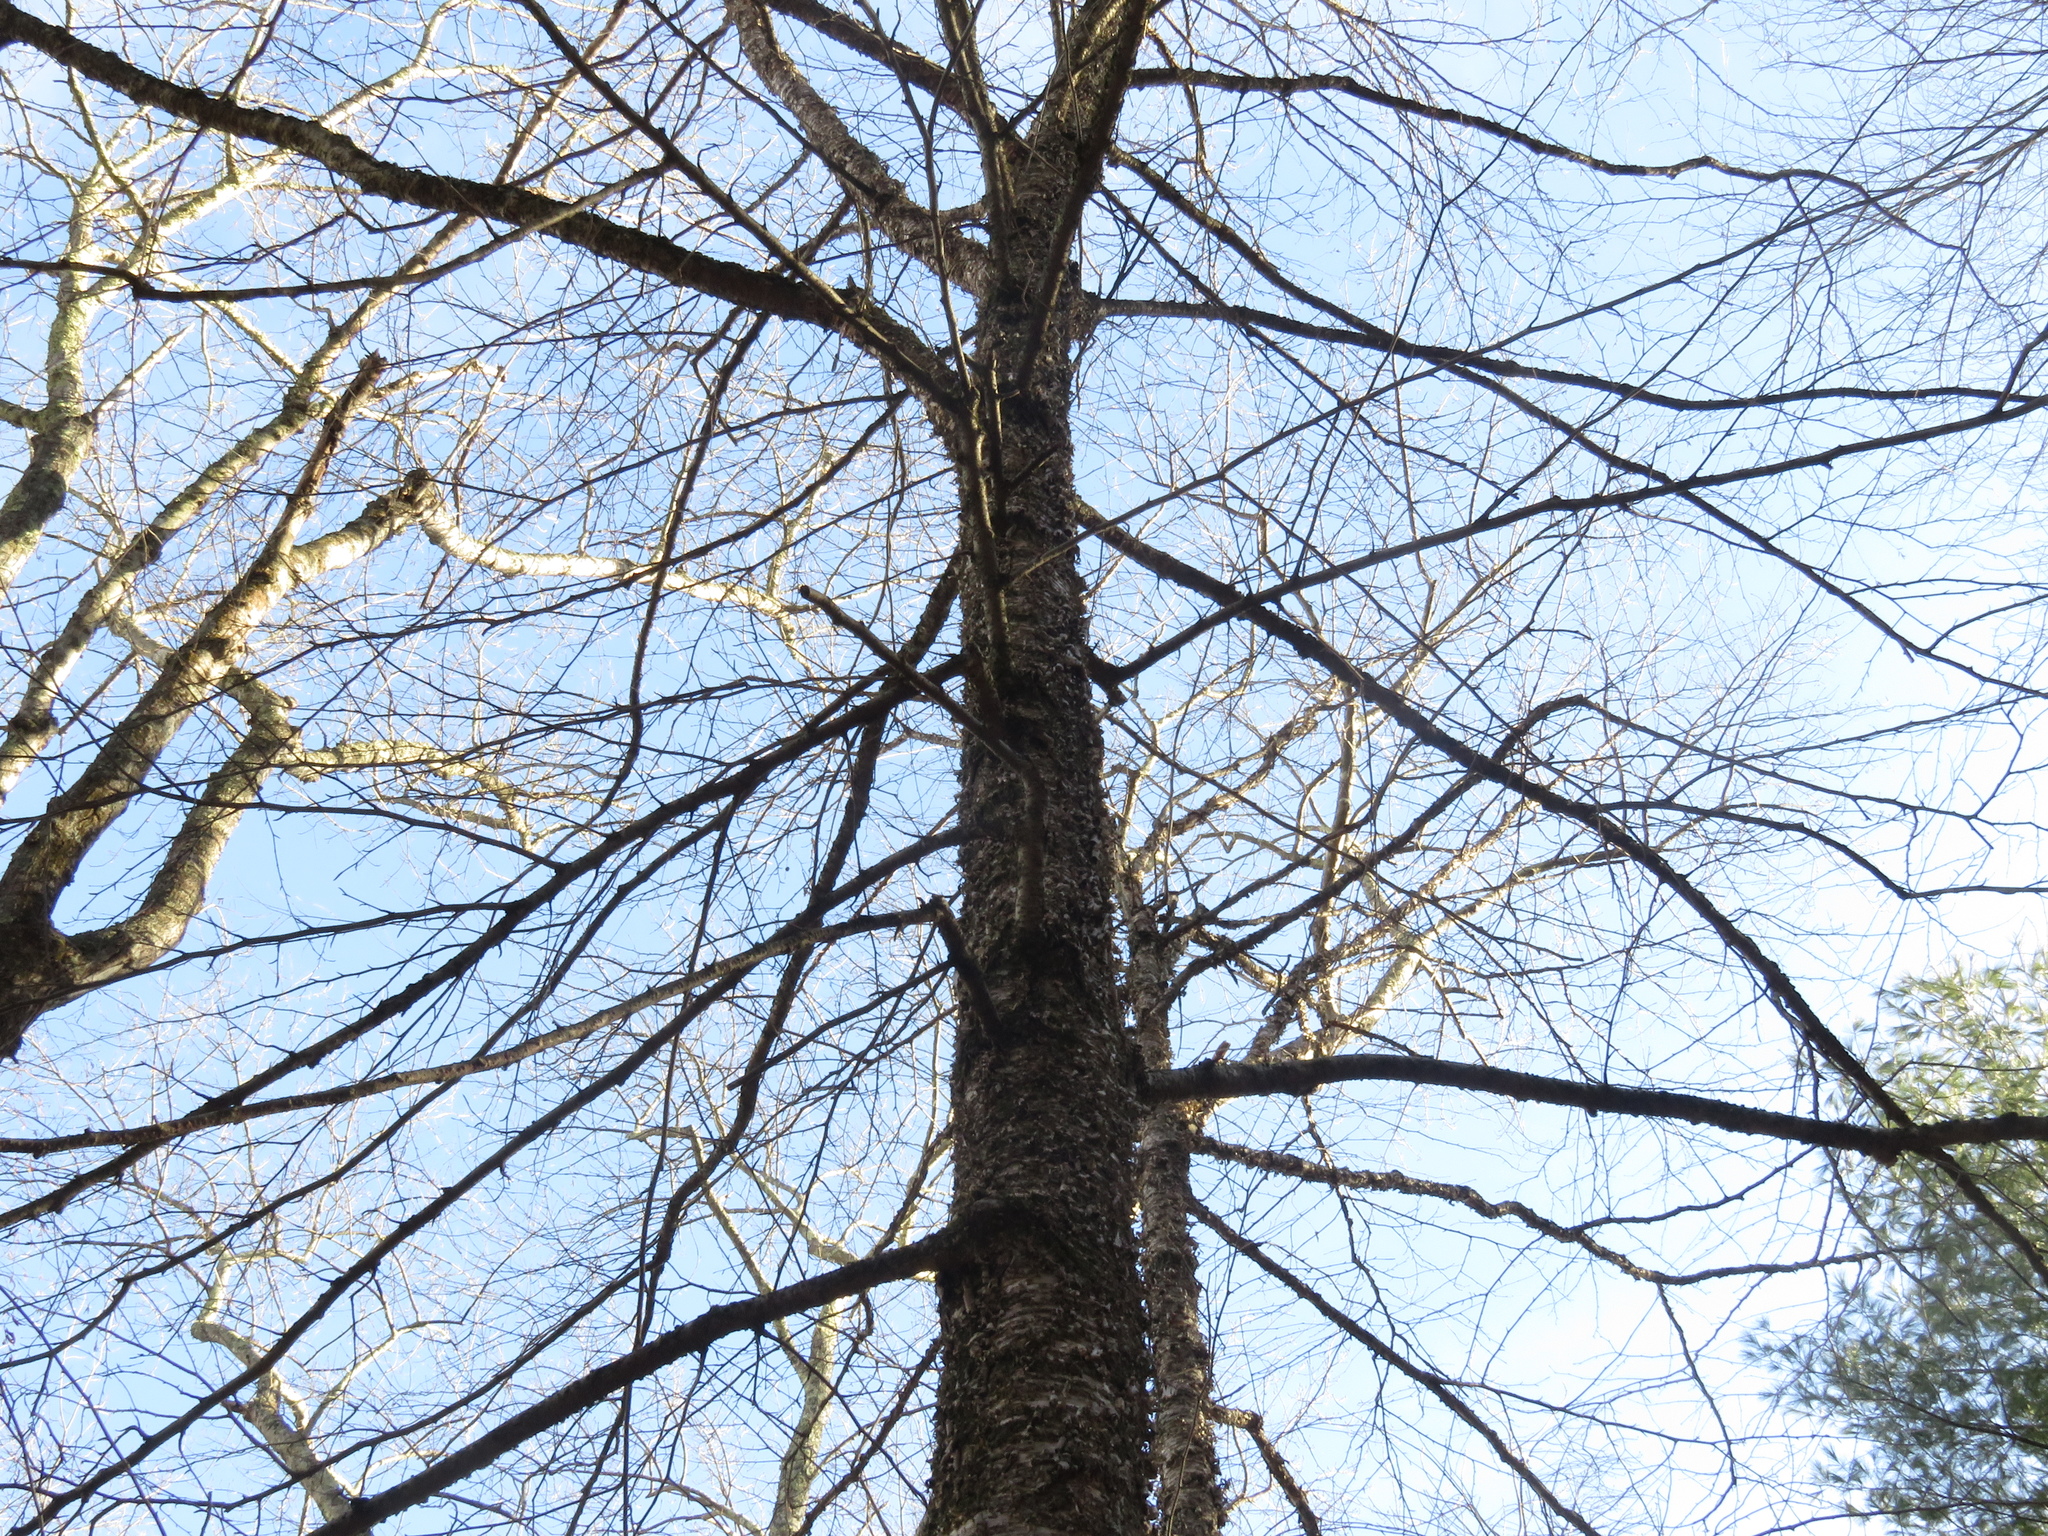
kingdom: Plantae
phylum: Tracheophyta
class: Magnoliopsida
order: Fagales
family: Betulaceae
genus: Betula
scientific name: Betula alleghaniensis
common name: Yellow birch
